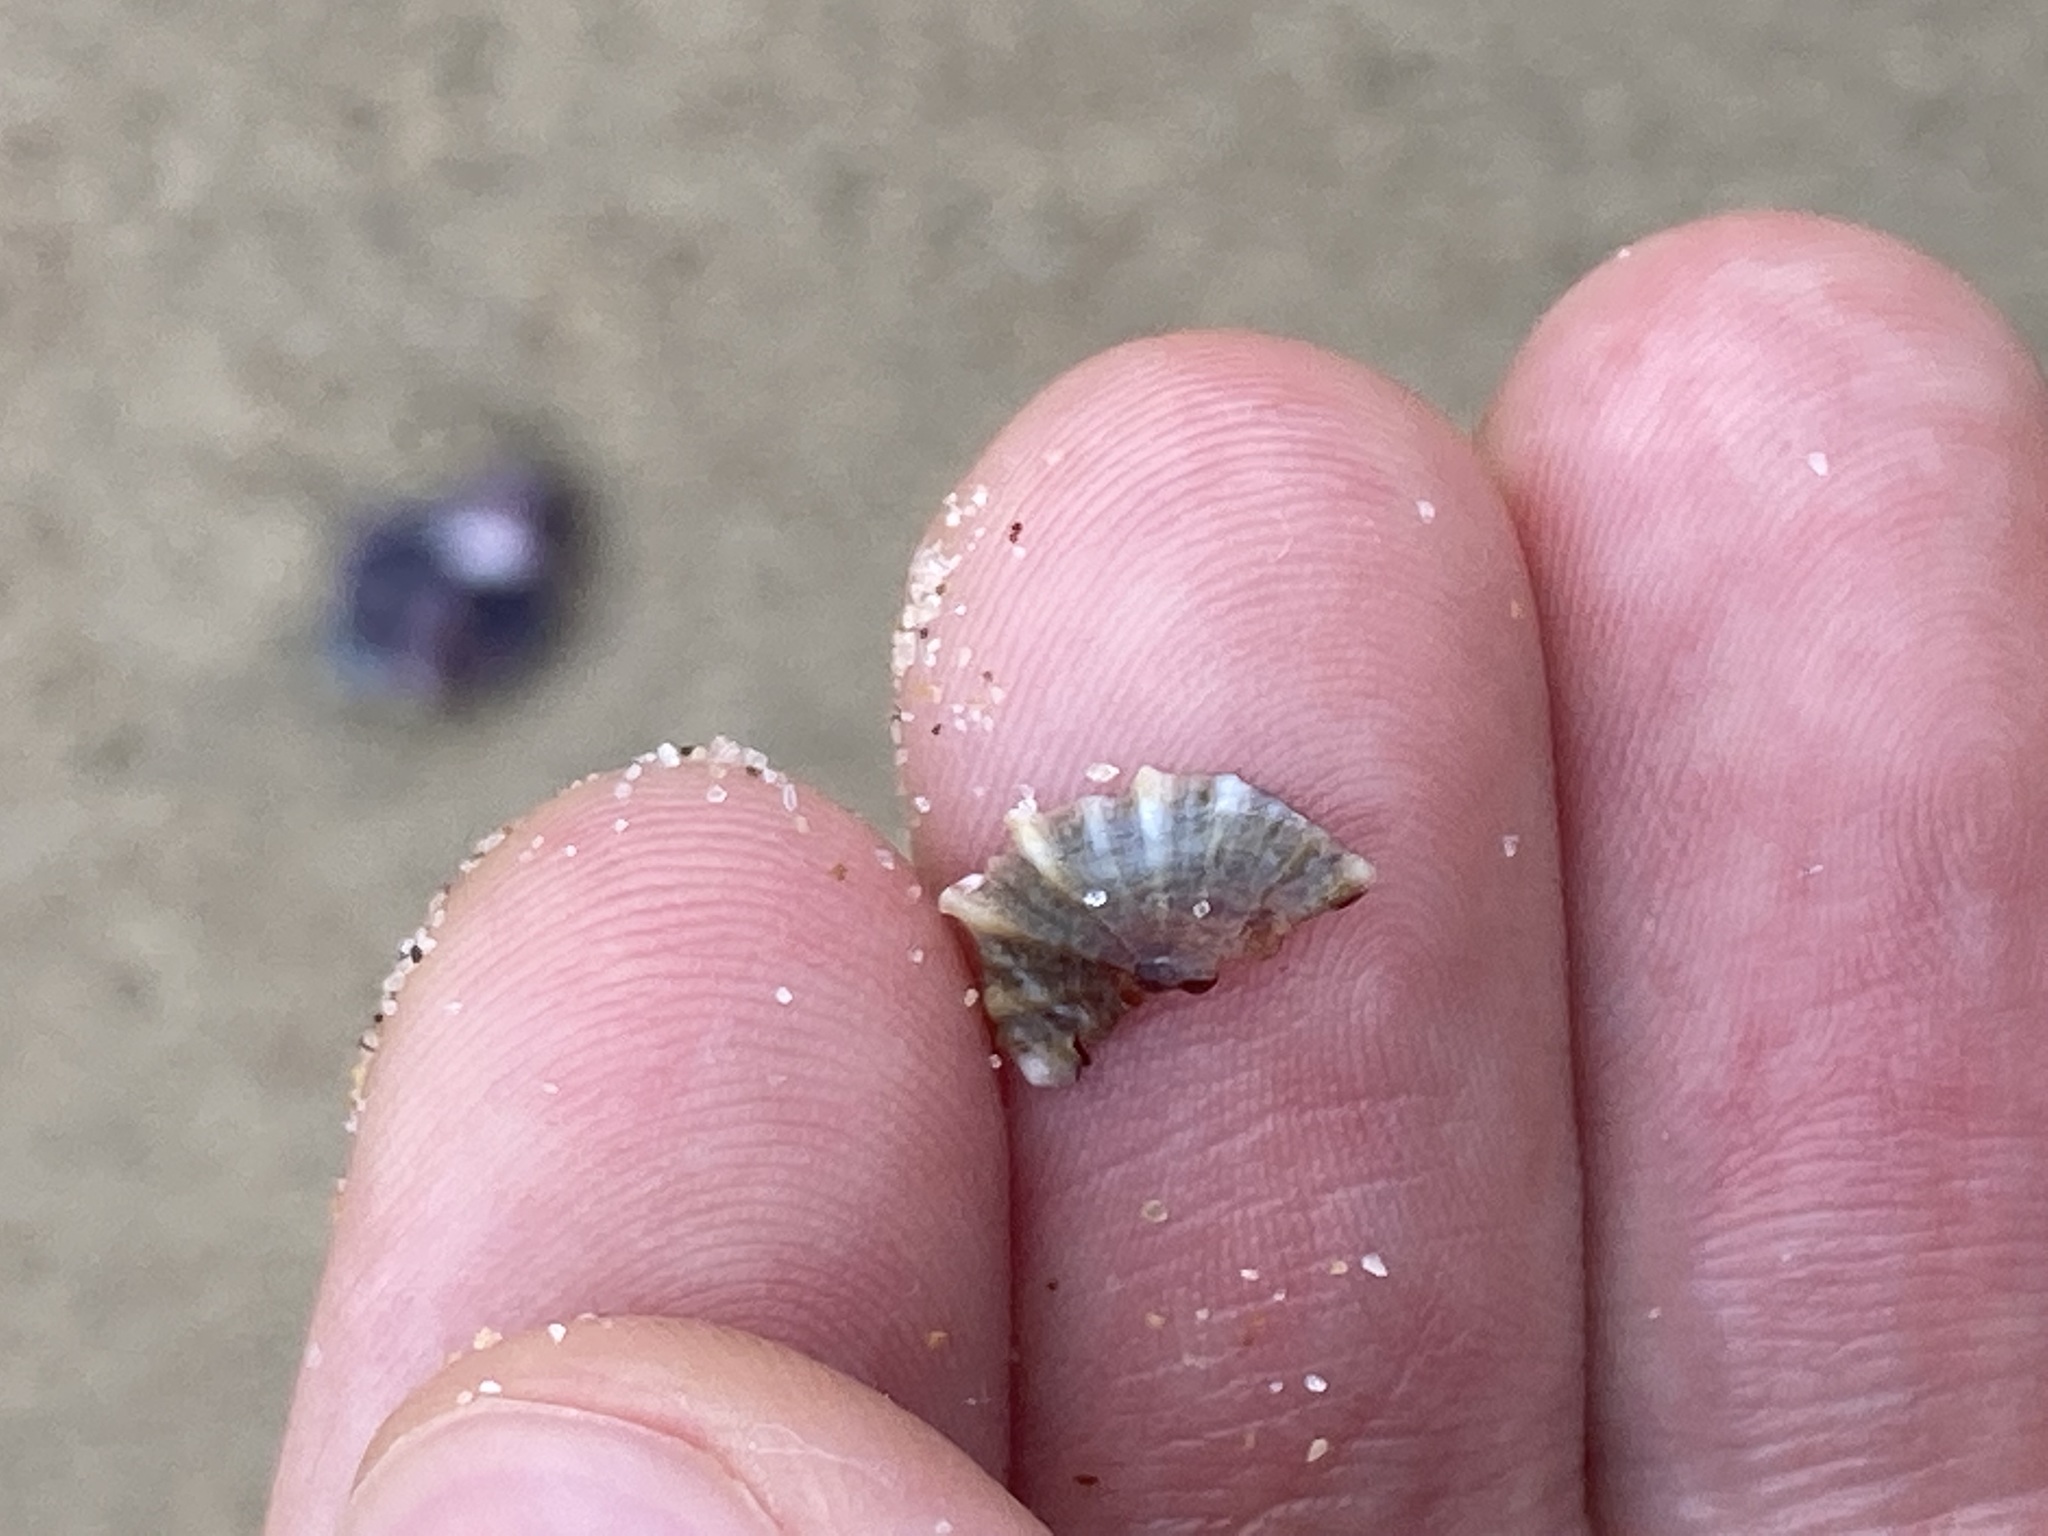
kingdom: Animalia
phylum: Mollusca
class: Gastropoda
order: Siphonariida
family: Siphonariidae
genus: Siphonaria
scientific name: Siphonaria denticulata
